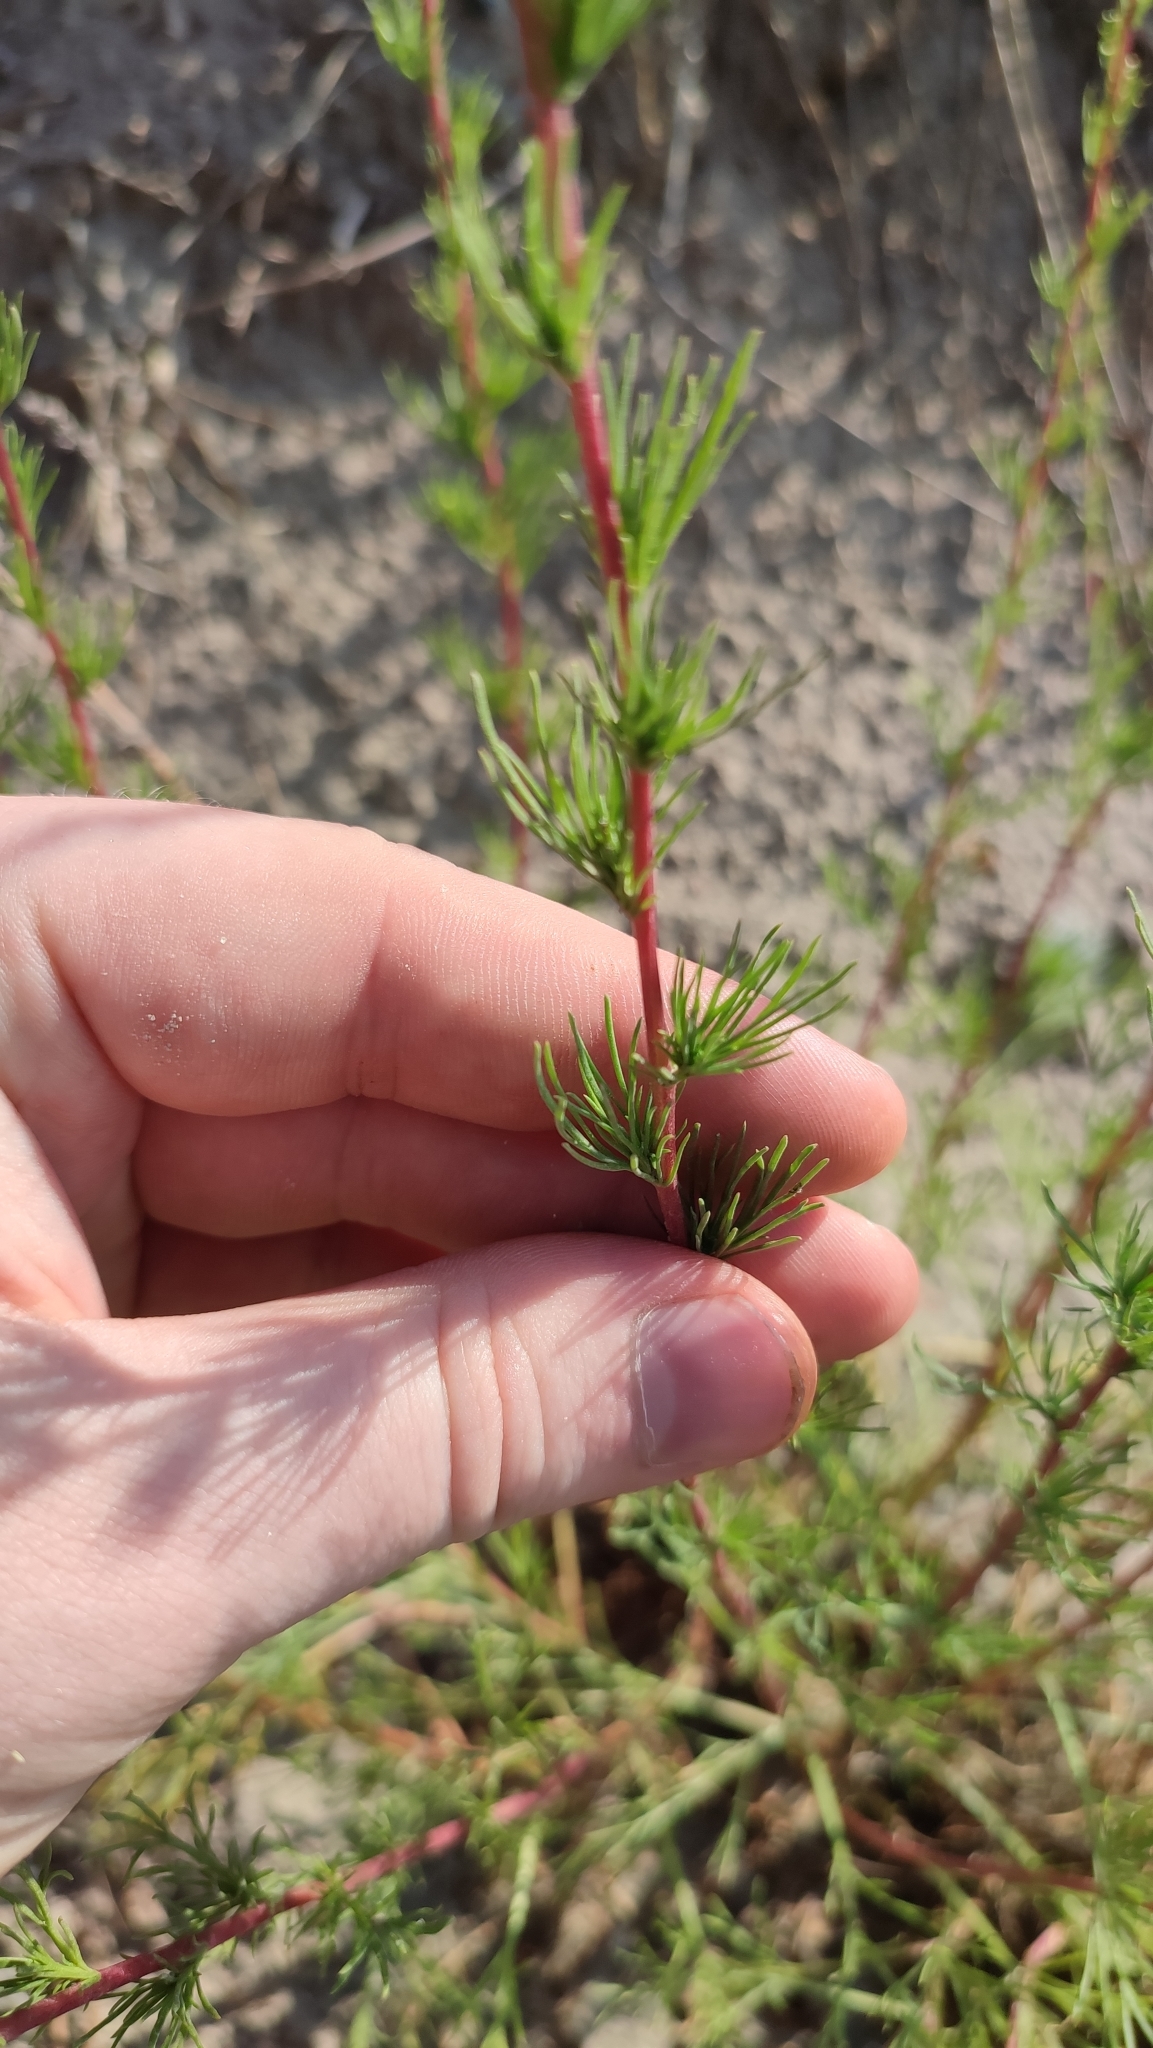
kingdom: Plantae
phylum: Tracheophyta
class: Magnoliopsida
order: Asterales
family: Asteraceae
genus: Artemisia
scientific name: Artemisia campestris
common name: Field wormwood
